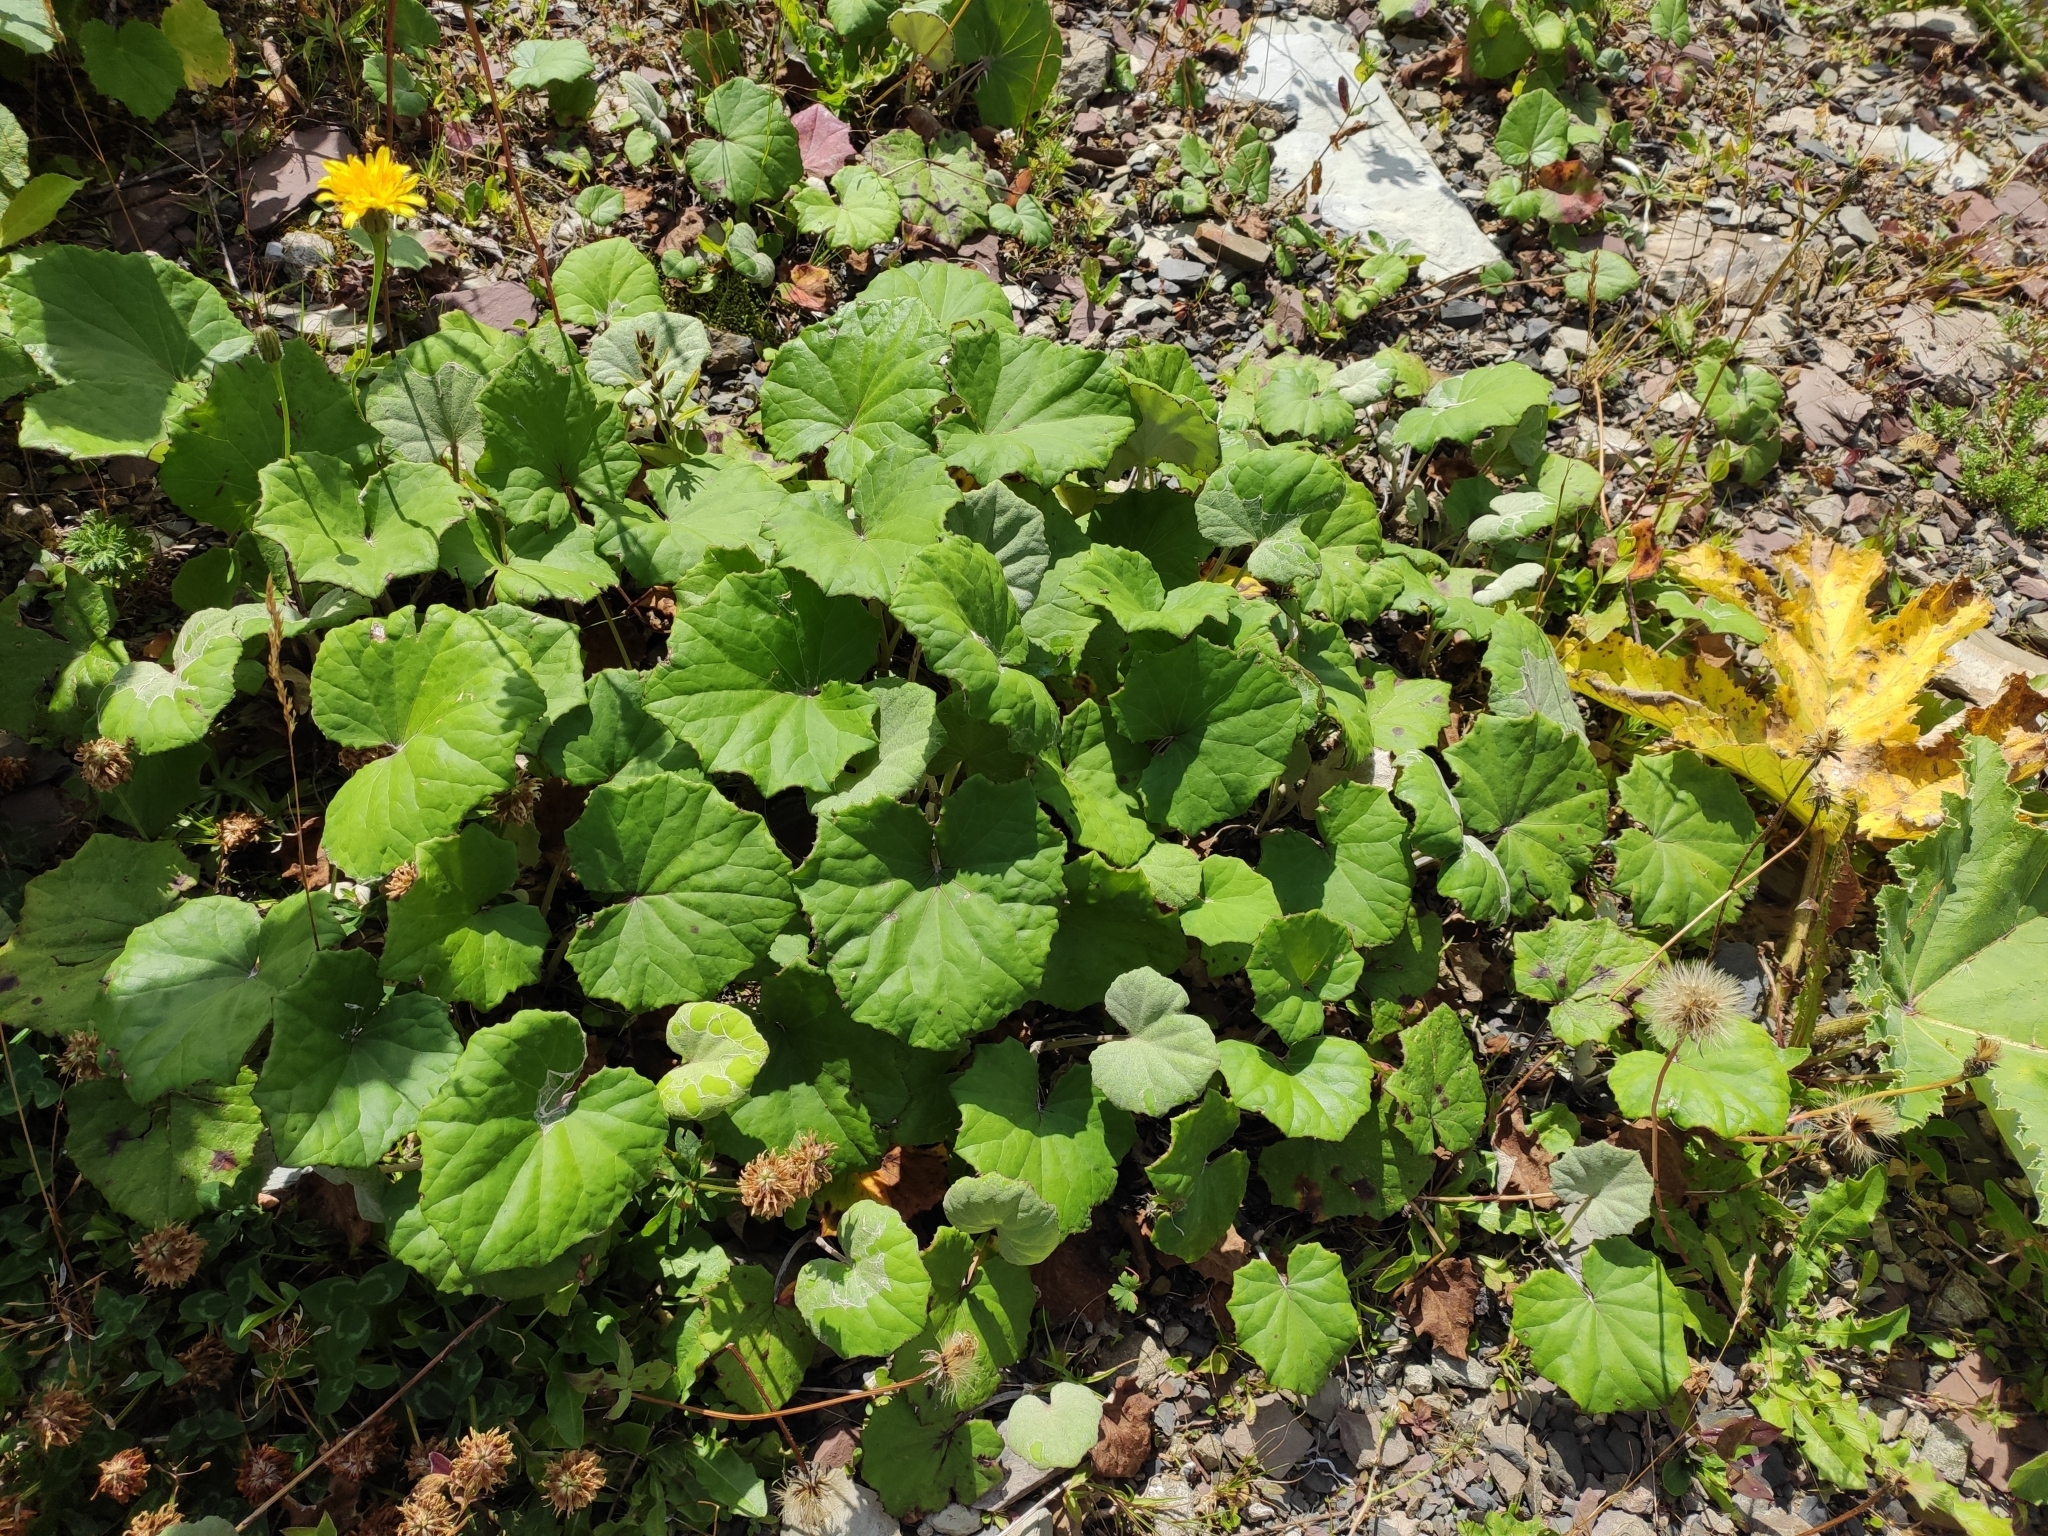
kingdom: Plantae
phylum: Tracheophyta
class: Magnoliopsida
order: Asterales
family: Asteraceae
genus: Tussilago
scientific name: Tussilago farfara
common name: Coltsfoot
